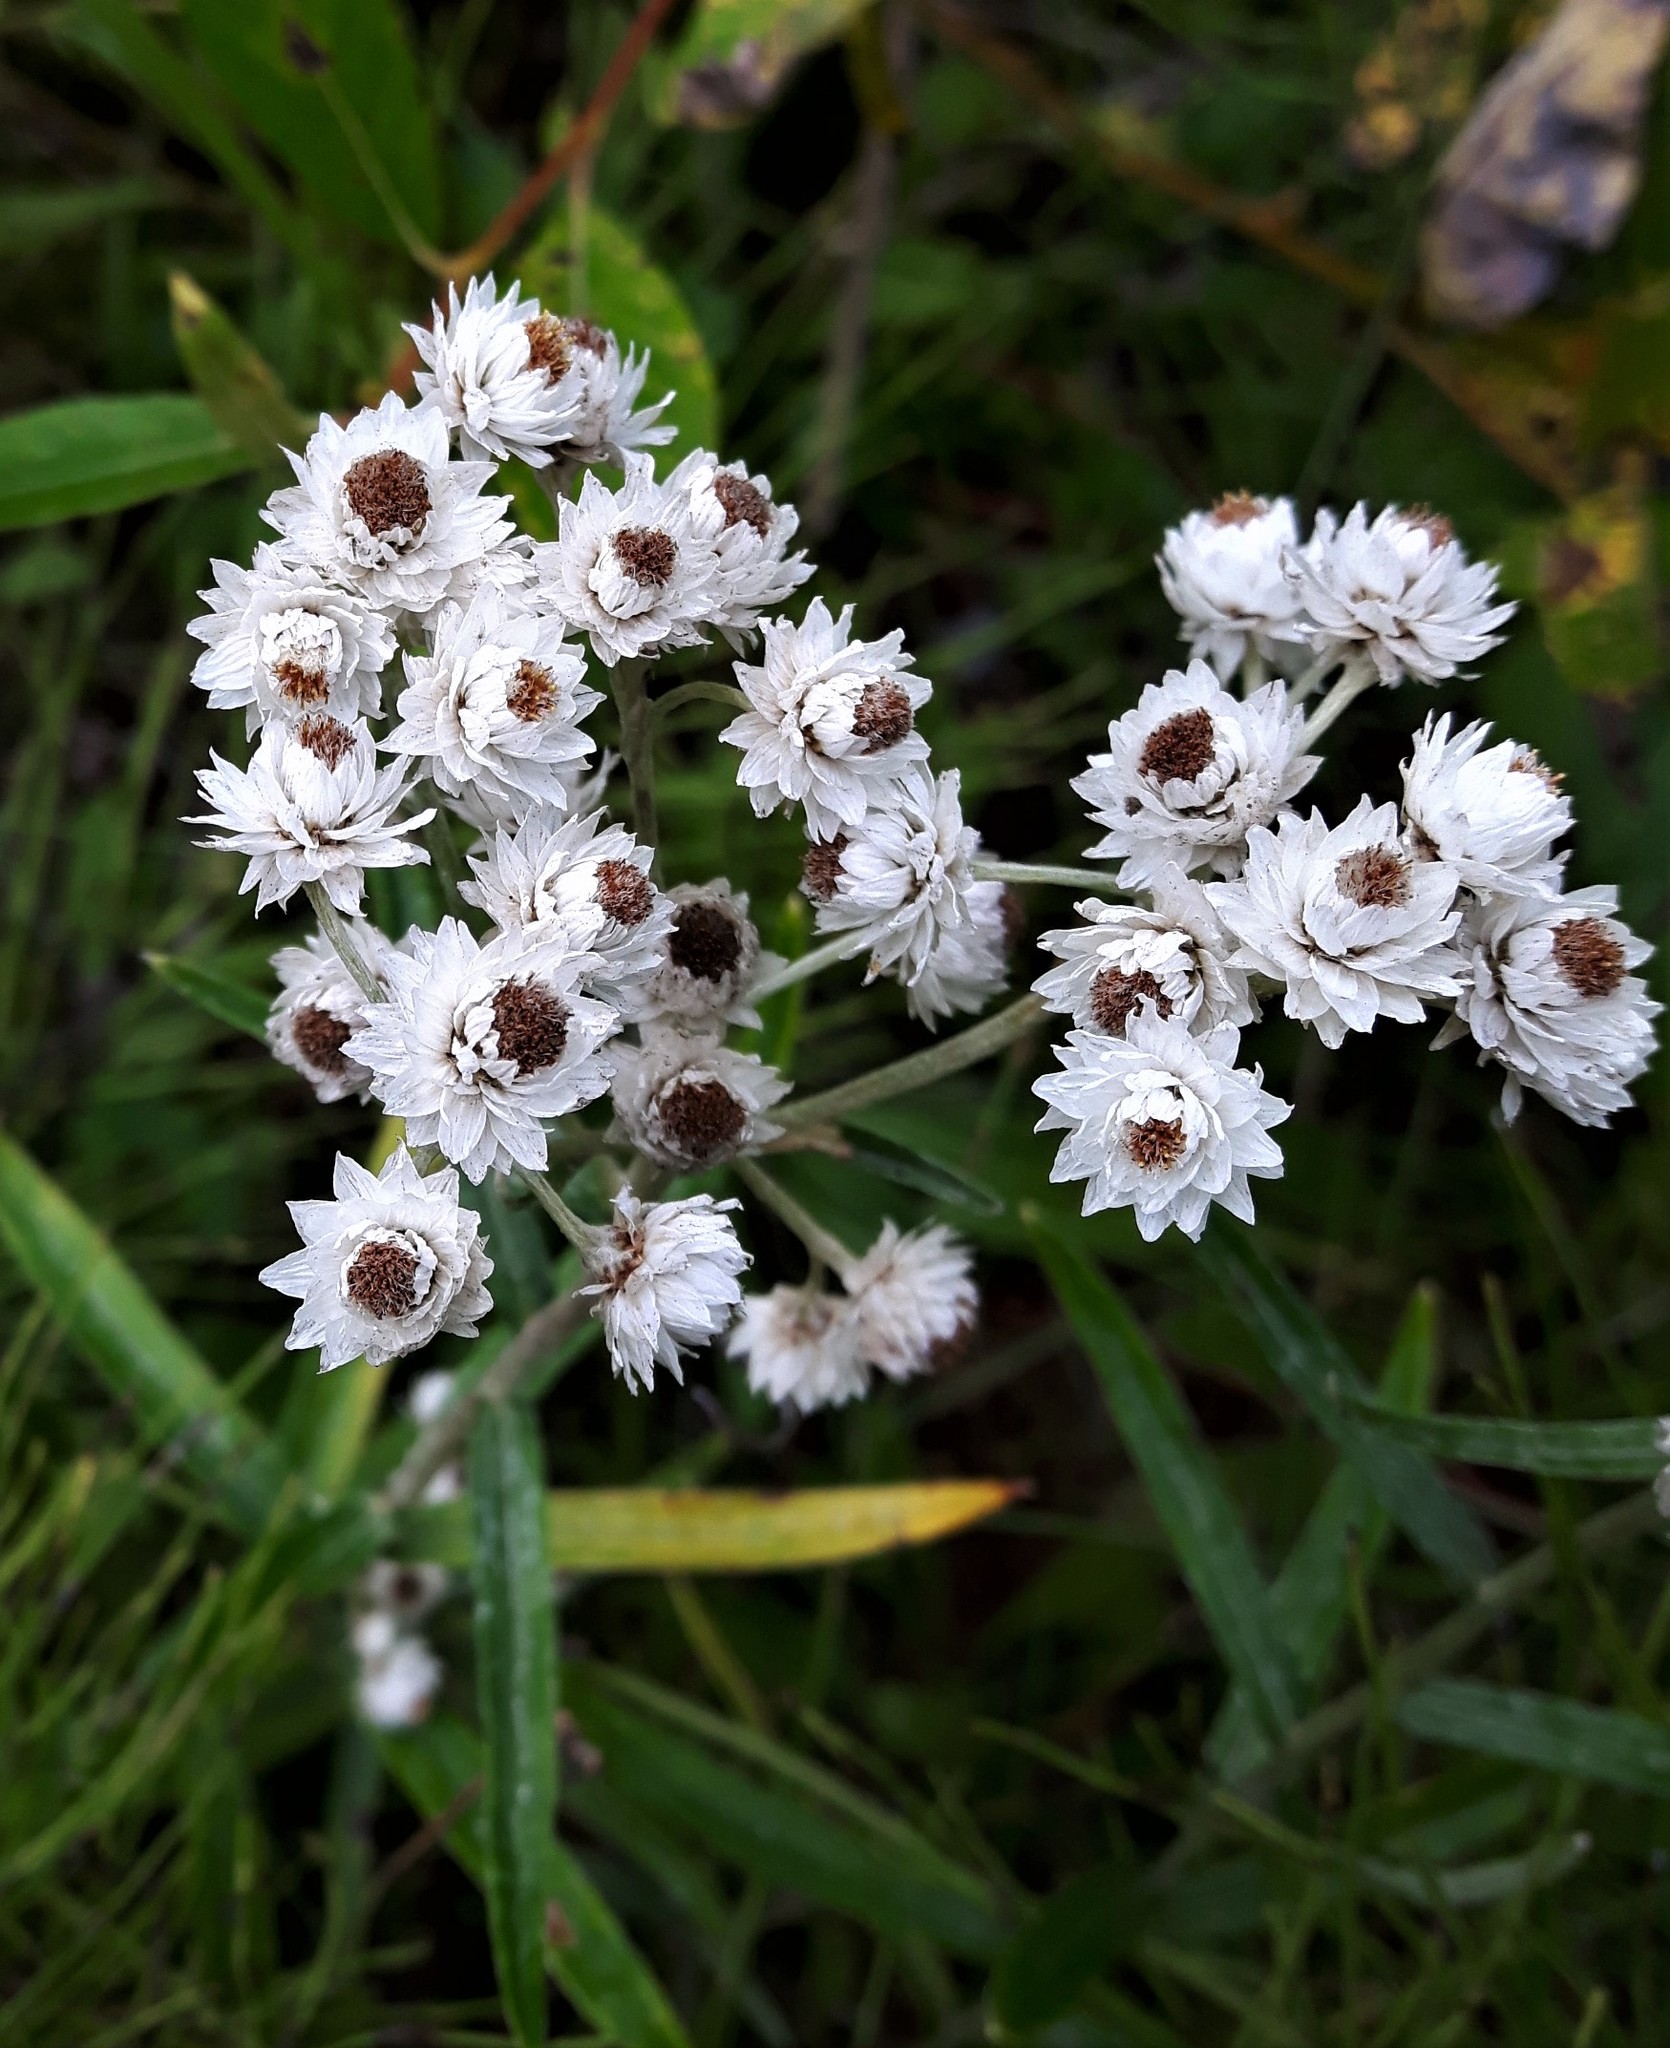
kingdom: Plantae
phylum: Tracheophyta
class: Magnoliopsida
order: Asterales
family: Asteraceae
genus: Anaphalis
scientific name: Anaphalis margaritacea
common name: Pearly everlasting
